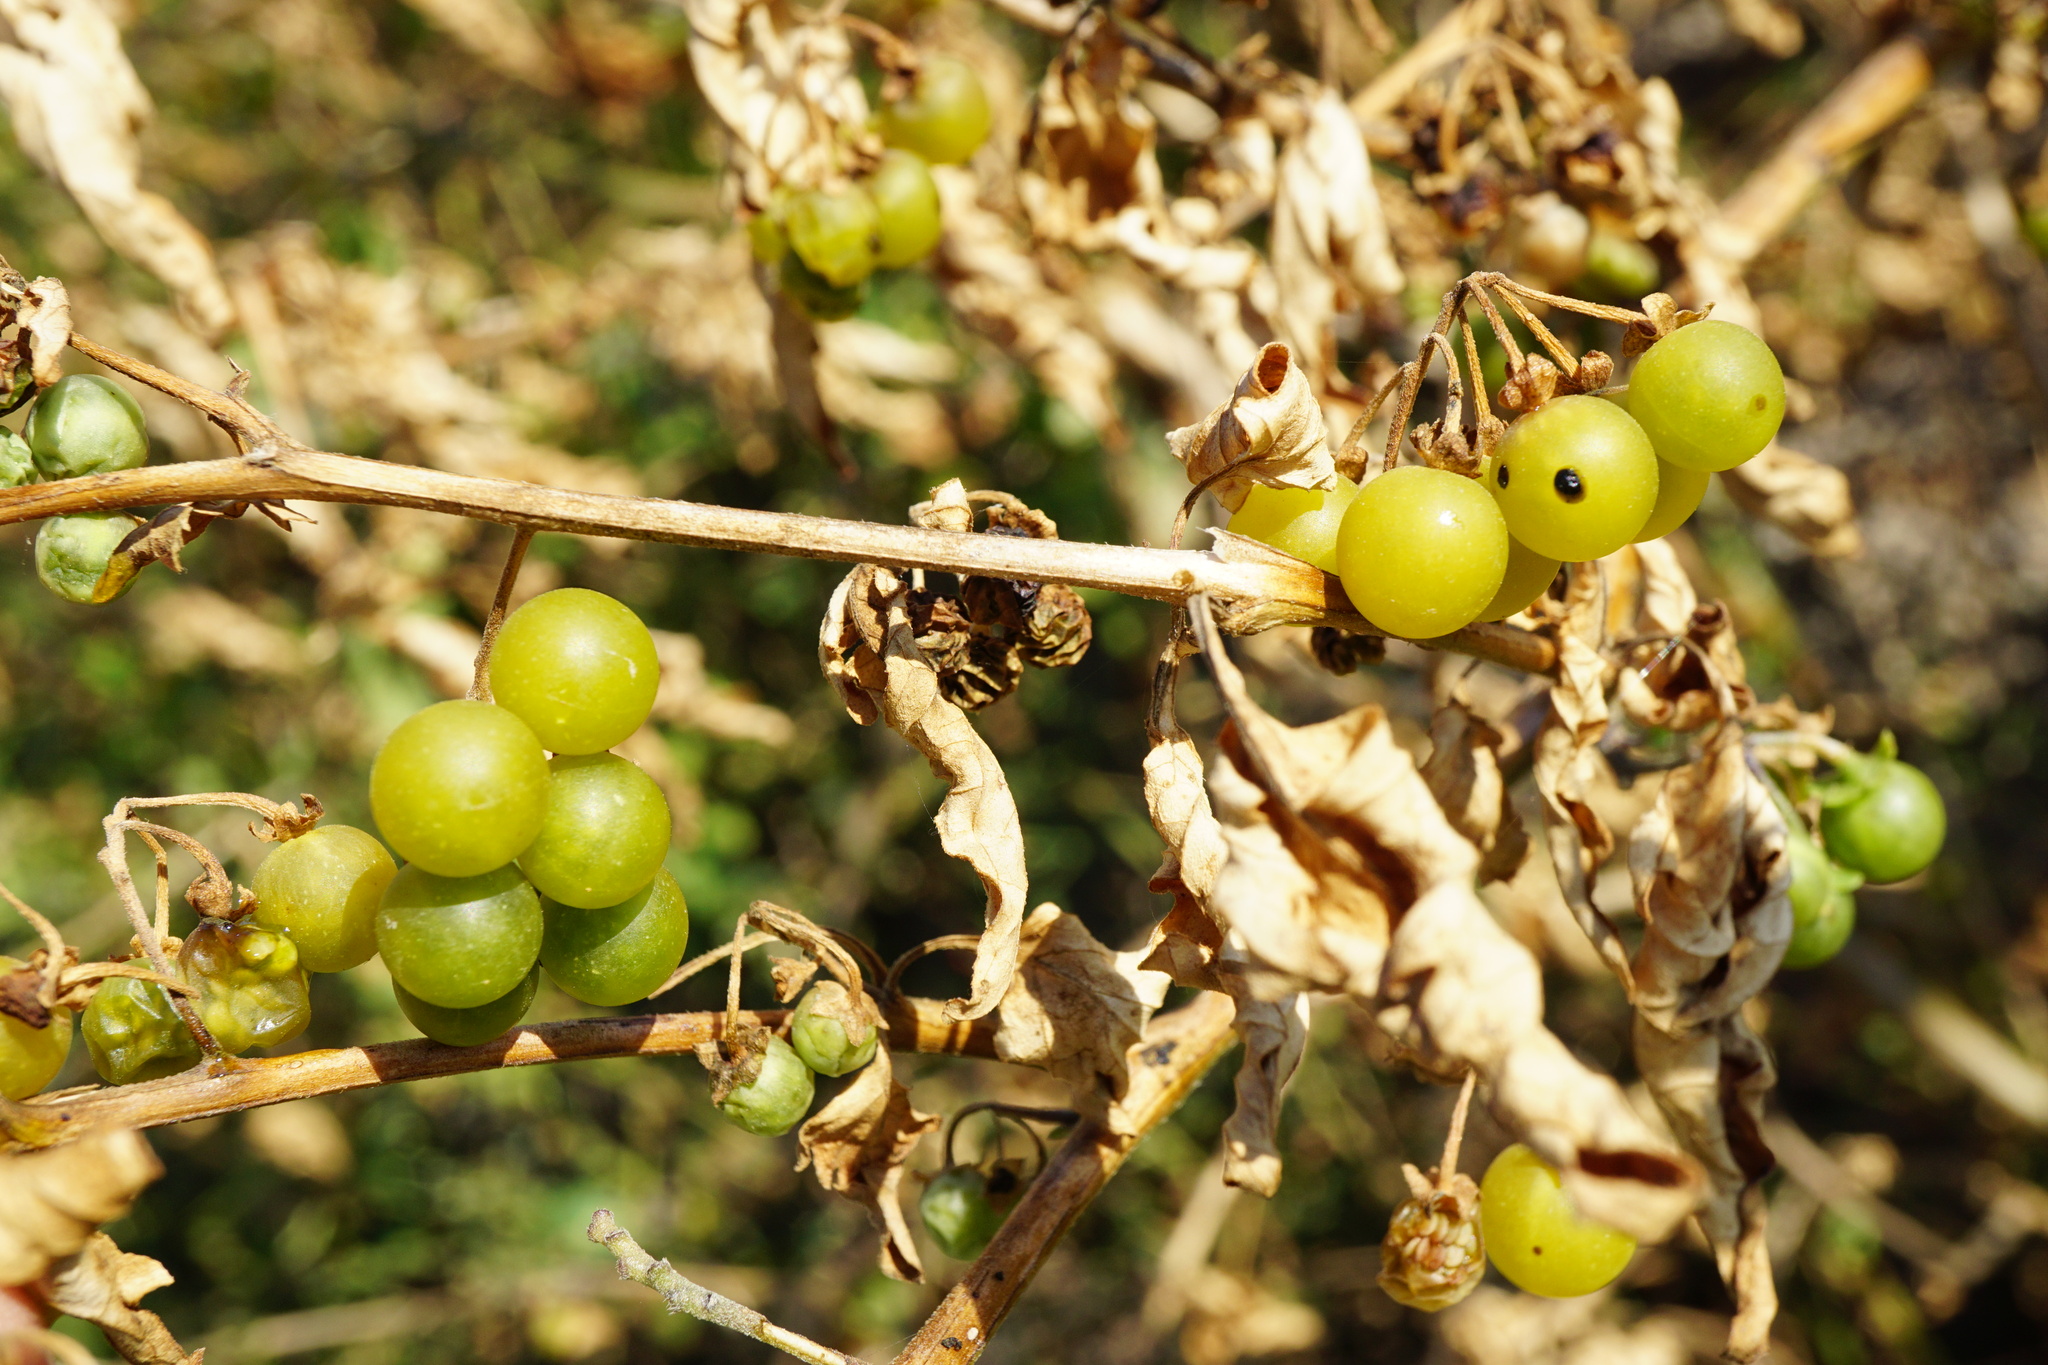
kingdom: Plantae
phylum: Tracheophyta
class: Magnoliopsida
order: Solanales
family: Solanaceae
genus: Solanum
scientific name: Solanum nigrum
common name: Black nightshade
